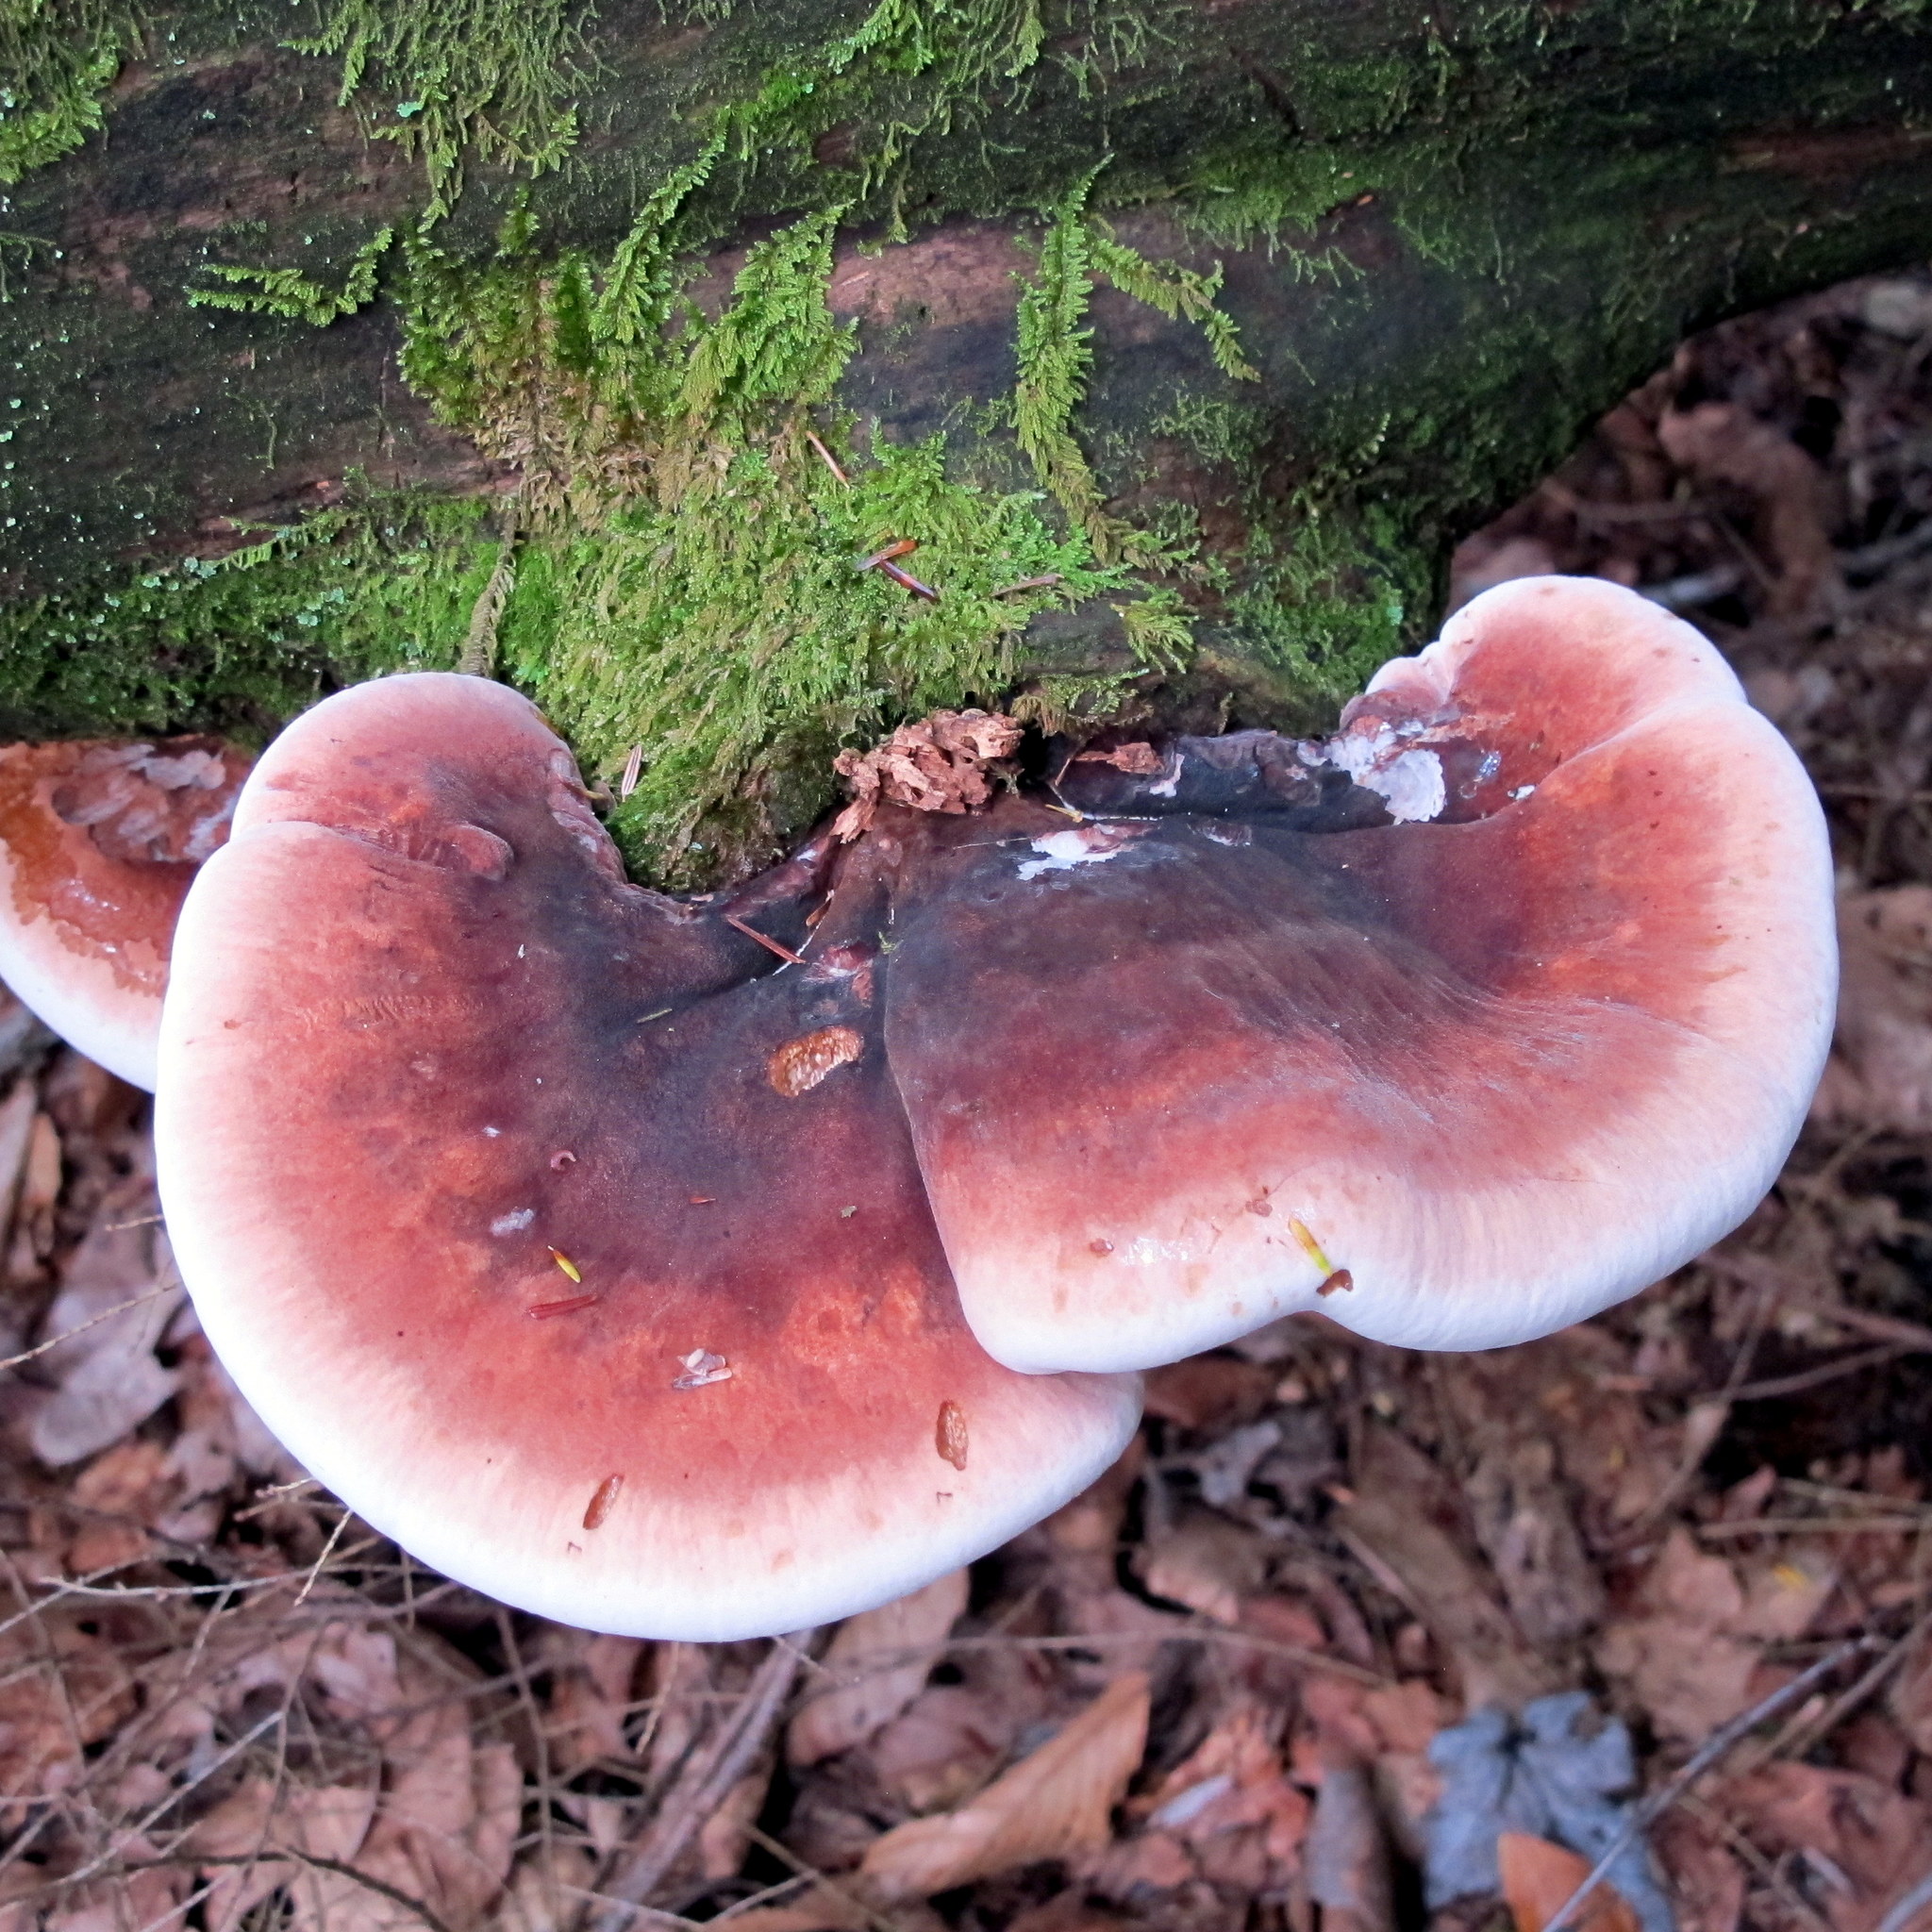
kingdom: Fungi
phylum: Basidiomycota
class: Agaricomycetes
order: Polyporales
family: Ischnodermataceae
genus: Ischnoderma
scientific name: Ischnoderma resinosum
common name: Resinous polypore
